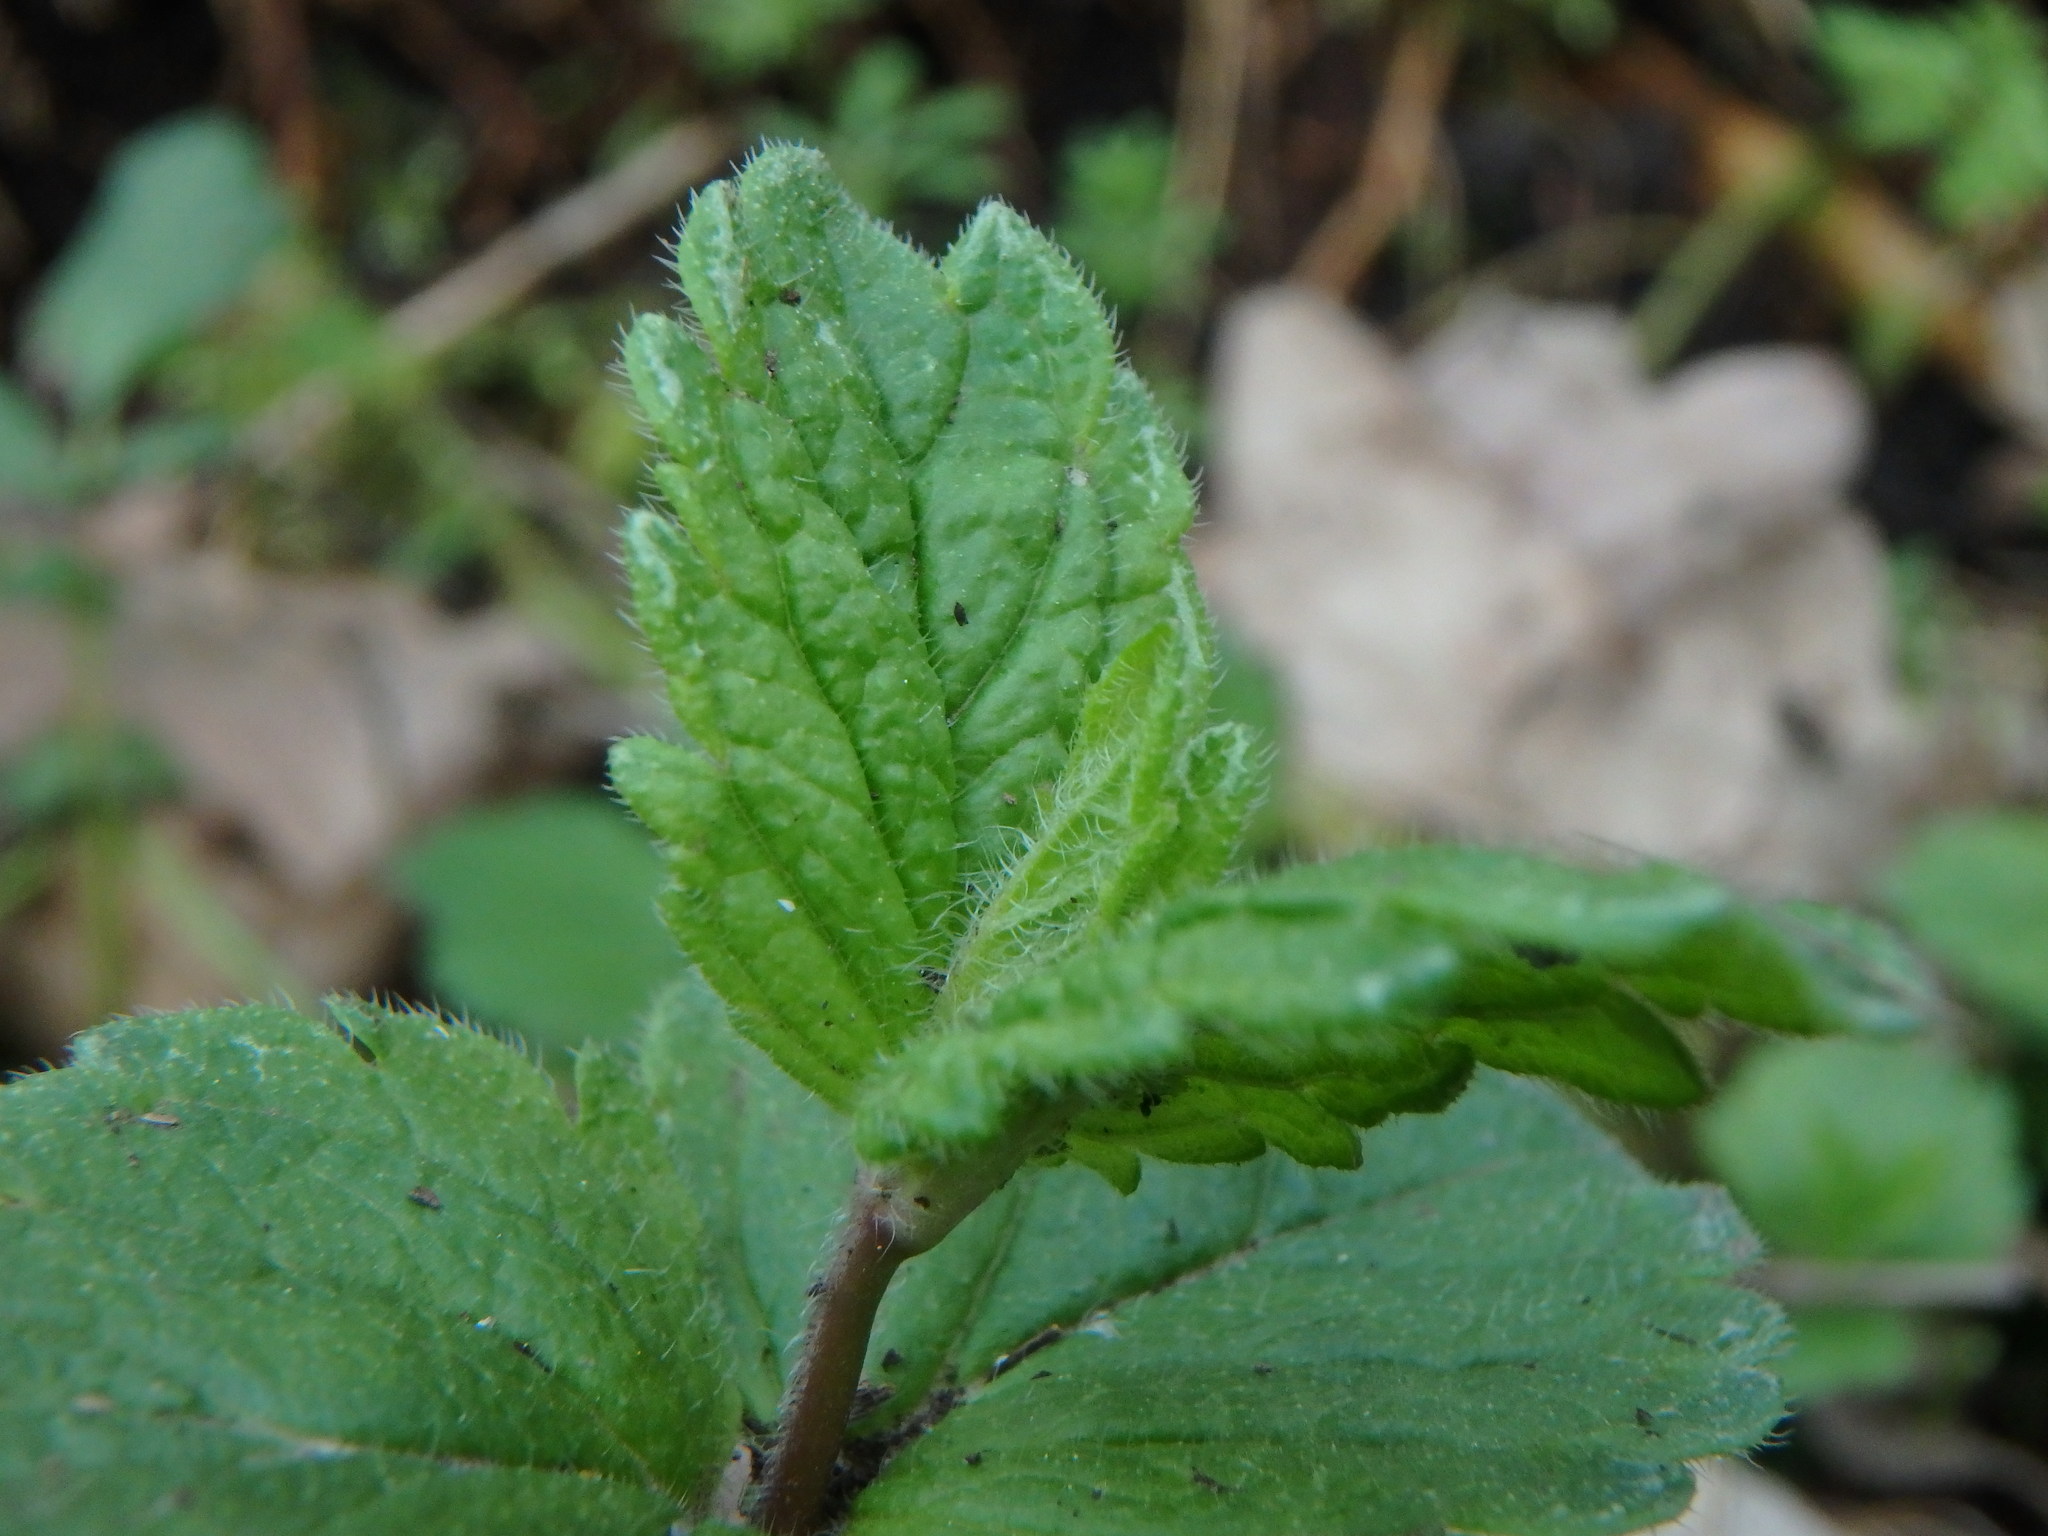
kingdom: Plantae
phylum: Tracheophyta
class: Magnoliopsida
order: Lamiales
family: Plantaginaceae
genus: Veronica
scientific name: Veronica chamaedrys
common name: Germander speedwell
